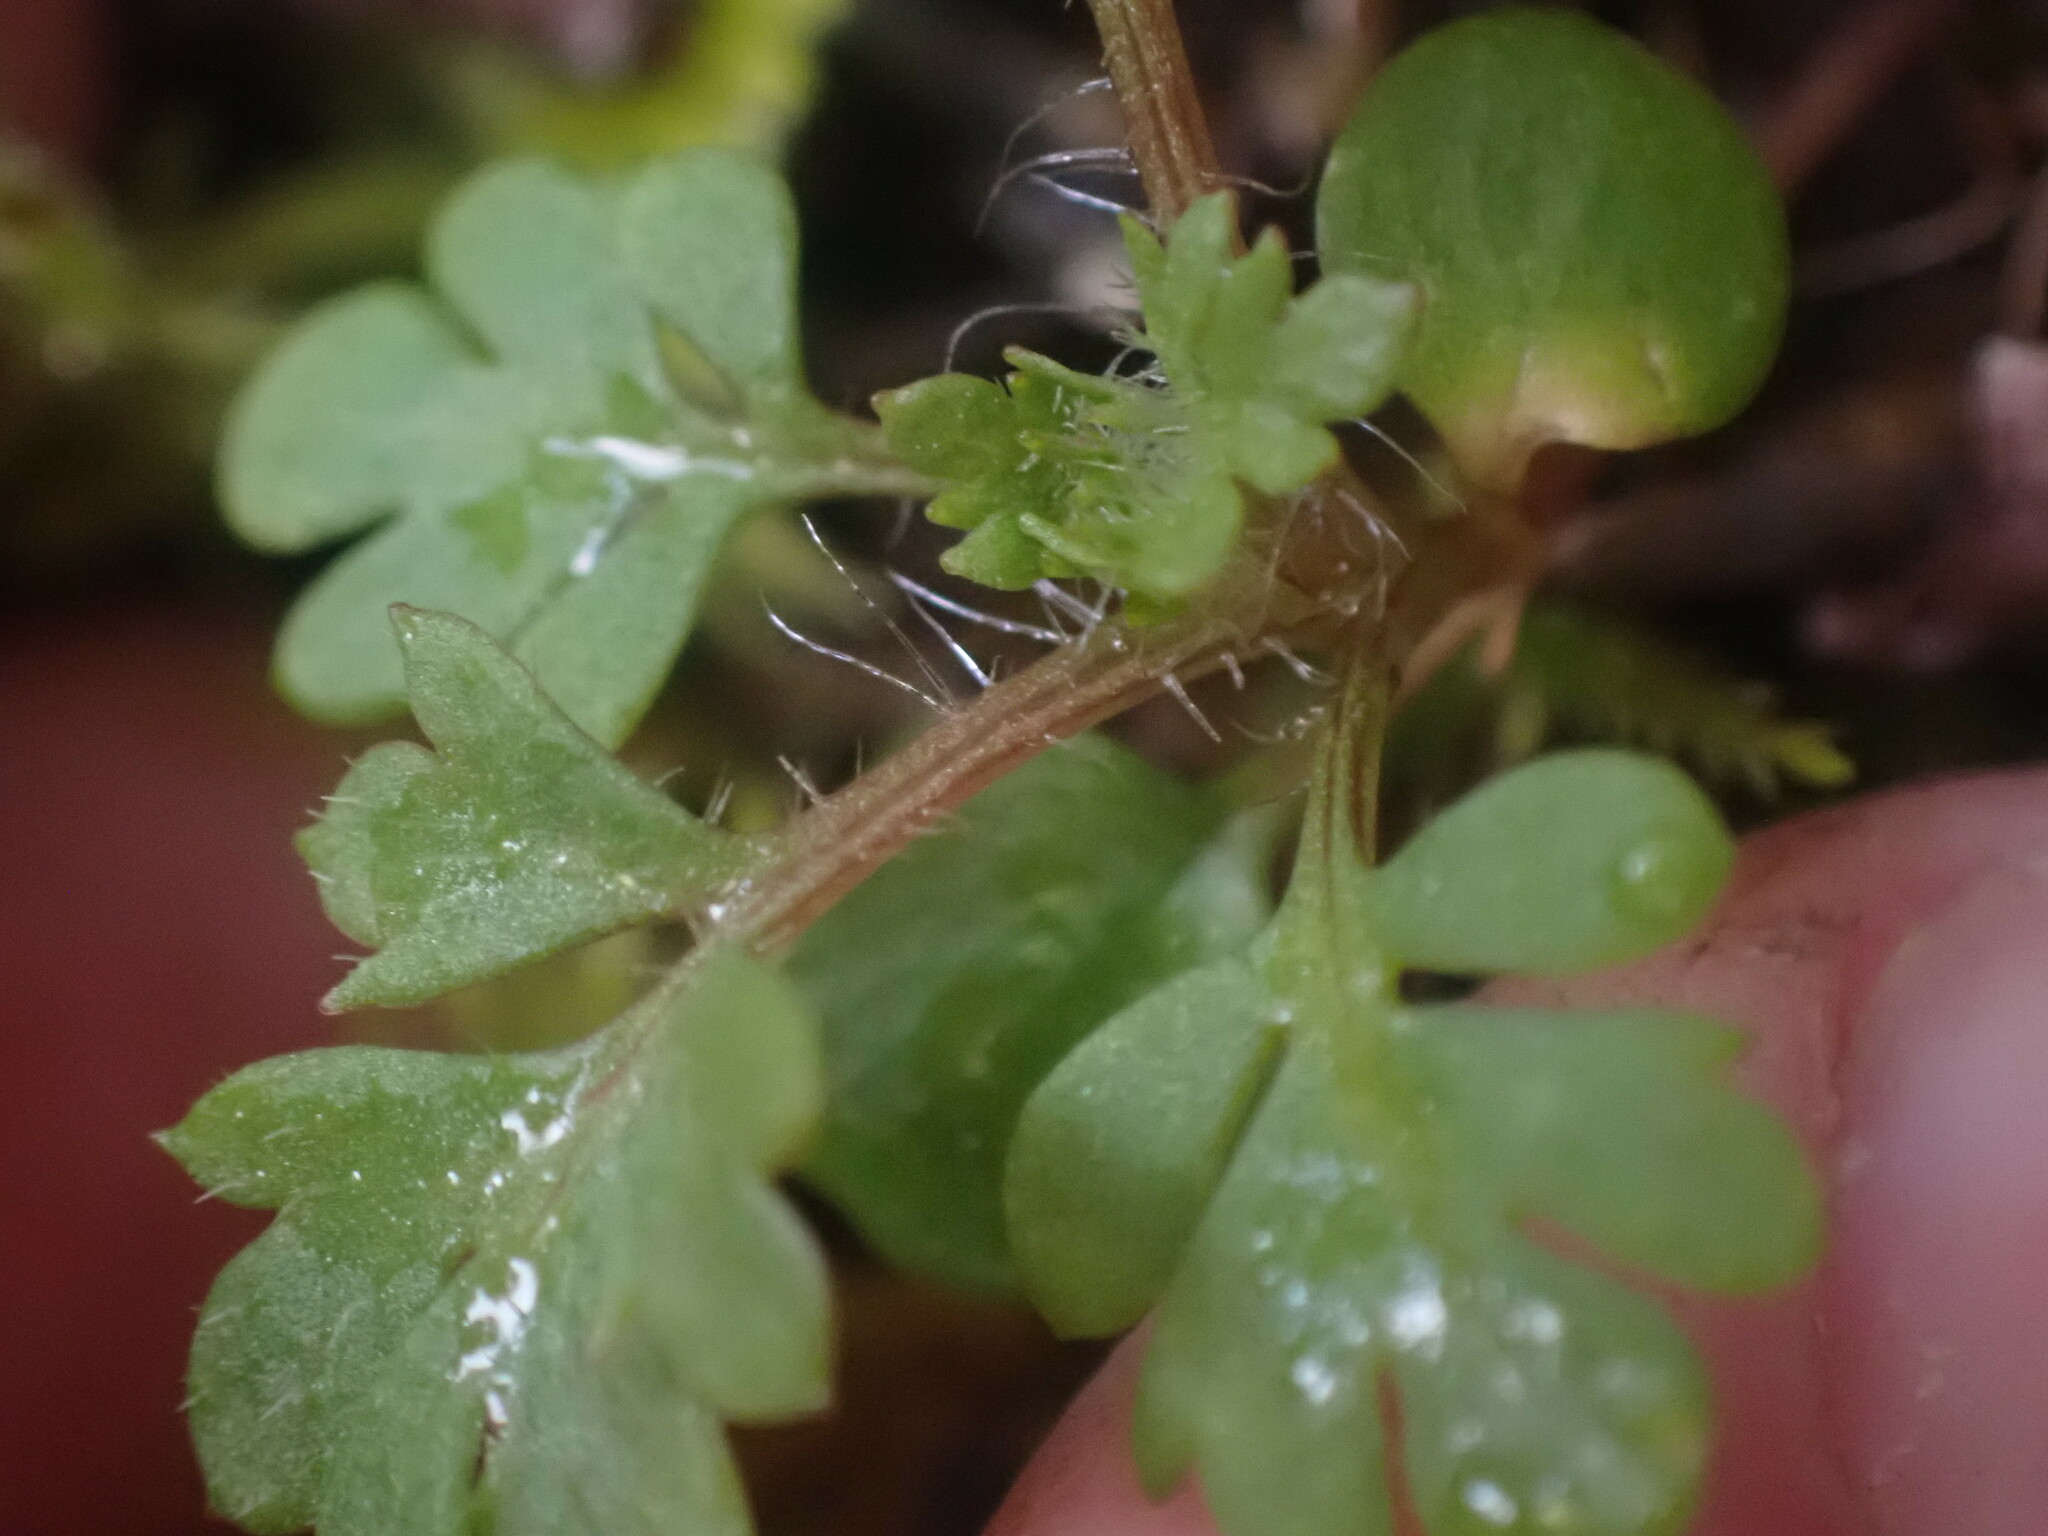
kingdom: Plantae
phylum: Tracheophyta
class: Magnoliopsida
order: Ericales
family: Polemoniaceae
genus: Collomia
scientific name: Collomia heterophylla
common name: Variable-leaved collomia
